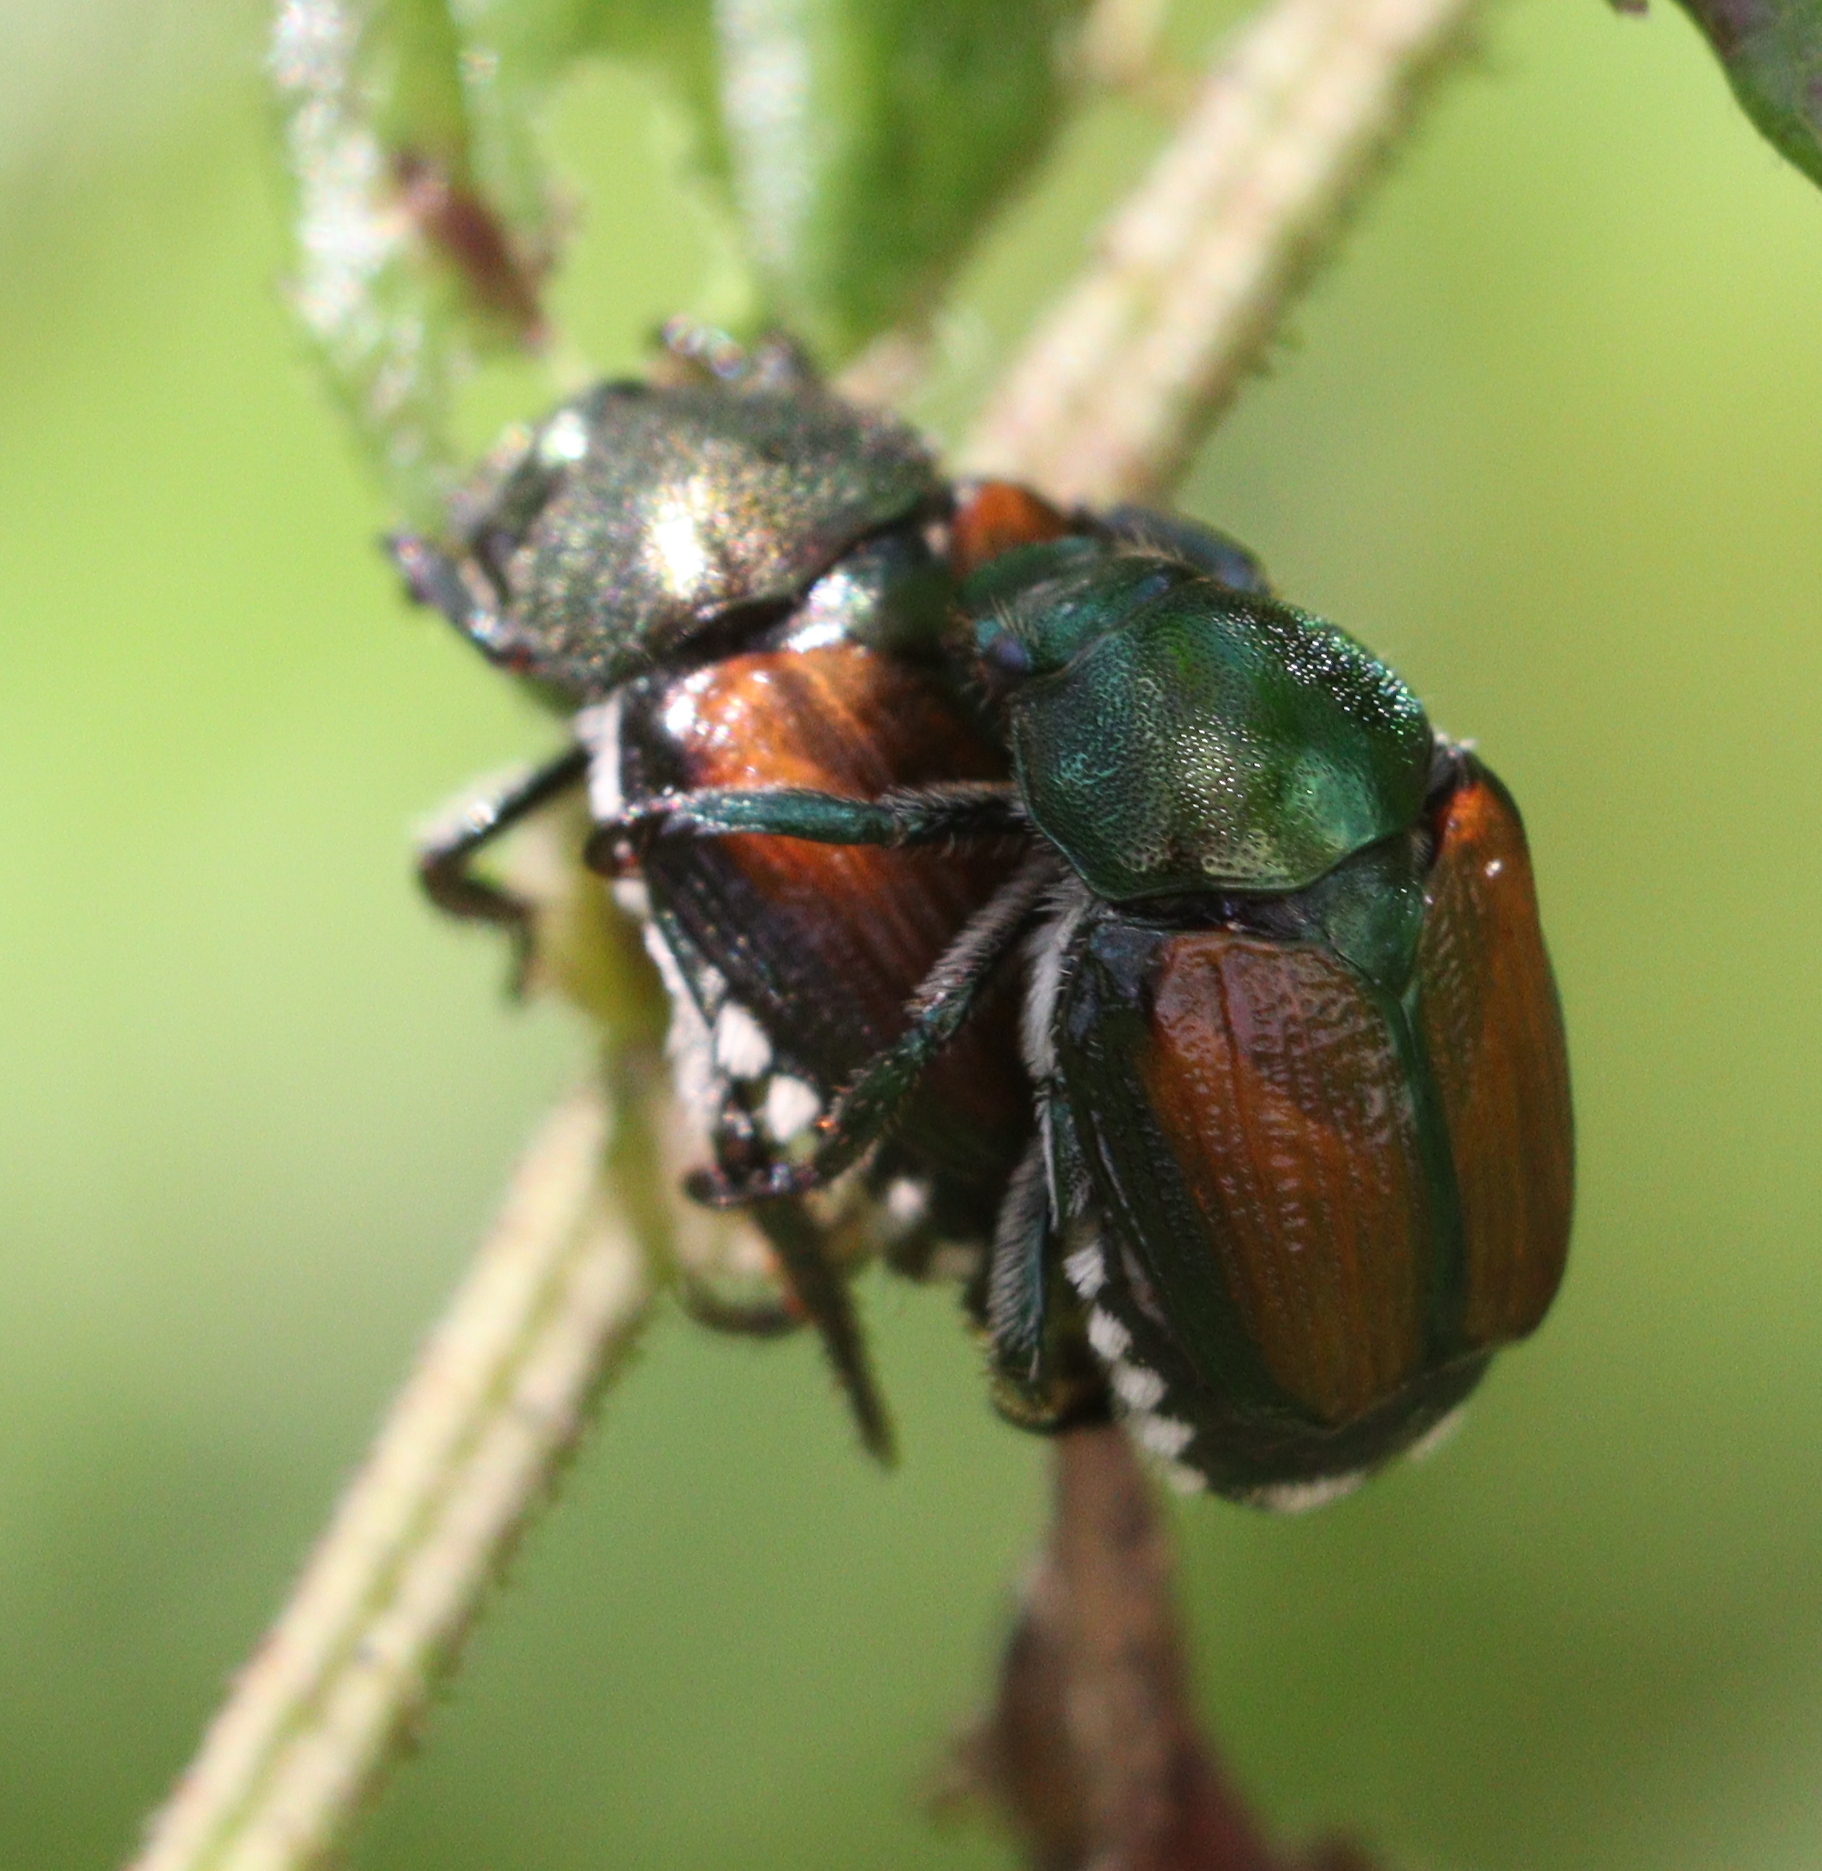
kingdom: Animalia
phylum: Arthropoda
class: Insecta
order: Coleoptera
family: Scarabaeidae
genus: Popillia
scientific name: Popillia japonica
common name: Japanese beetle
